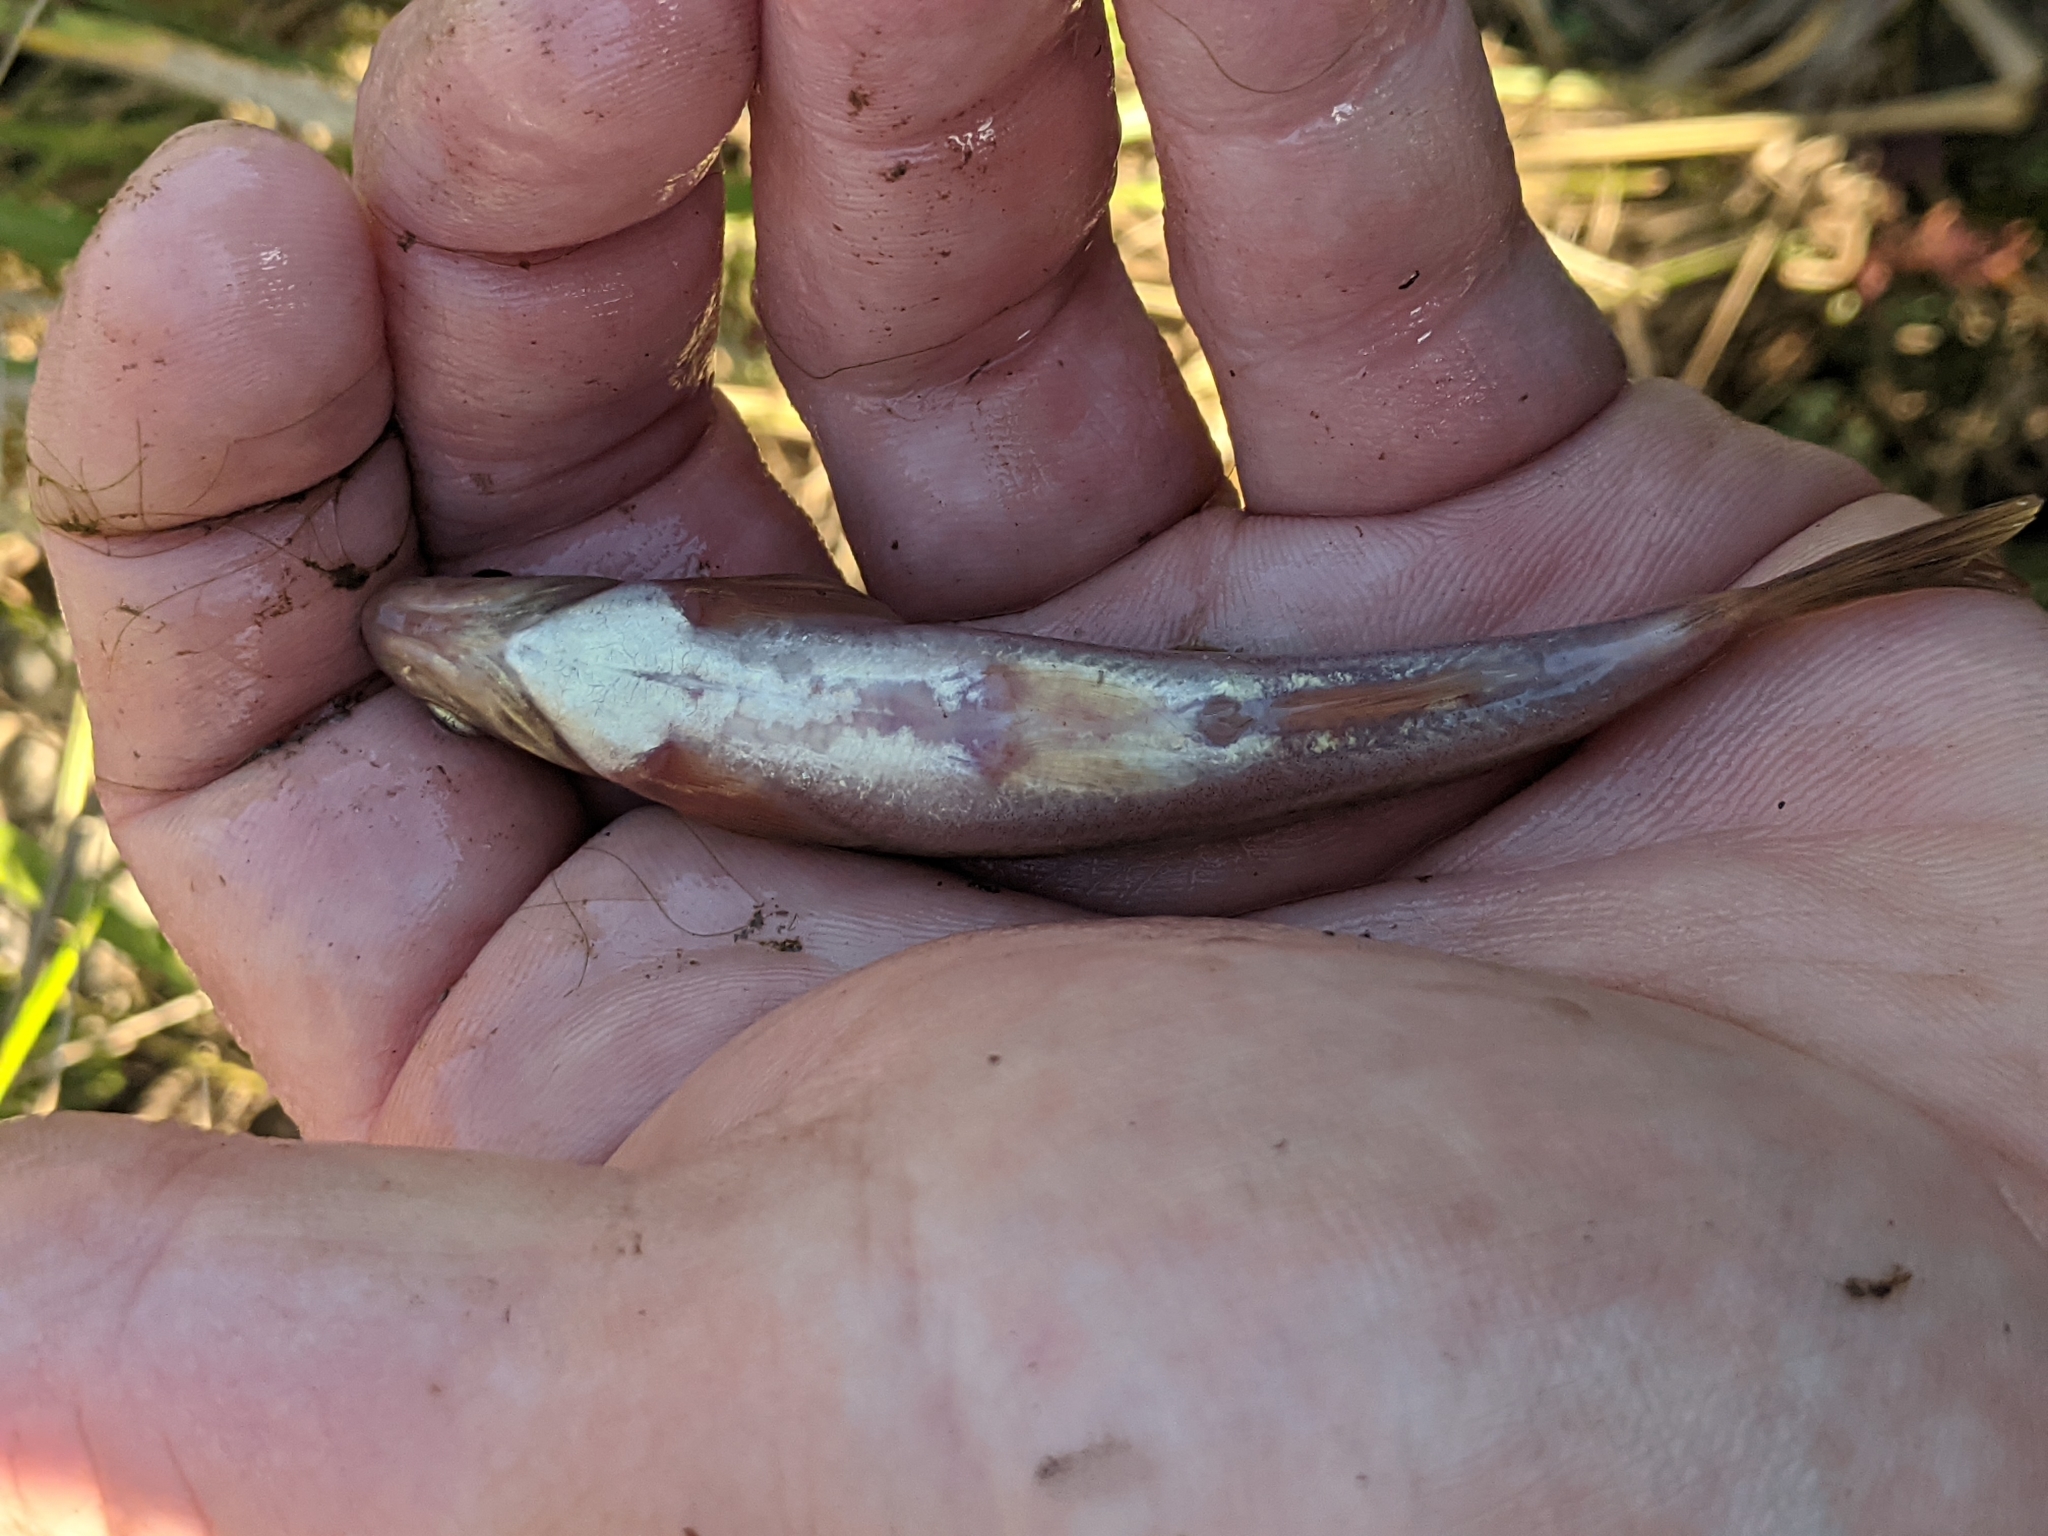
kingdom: Animalia
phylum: Chordata
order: Cypriniformes
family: Cyprinidae
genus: Margariscus
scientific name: Margariscus nachtriebi
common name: Northern pearl dace
